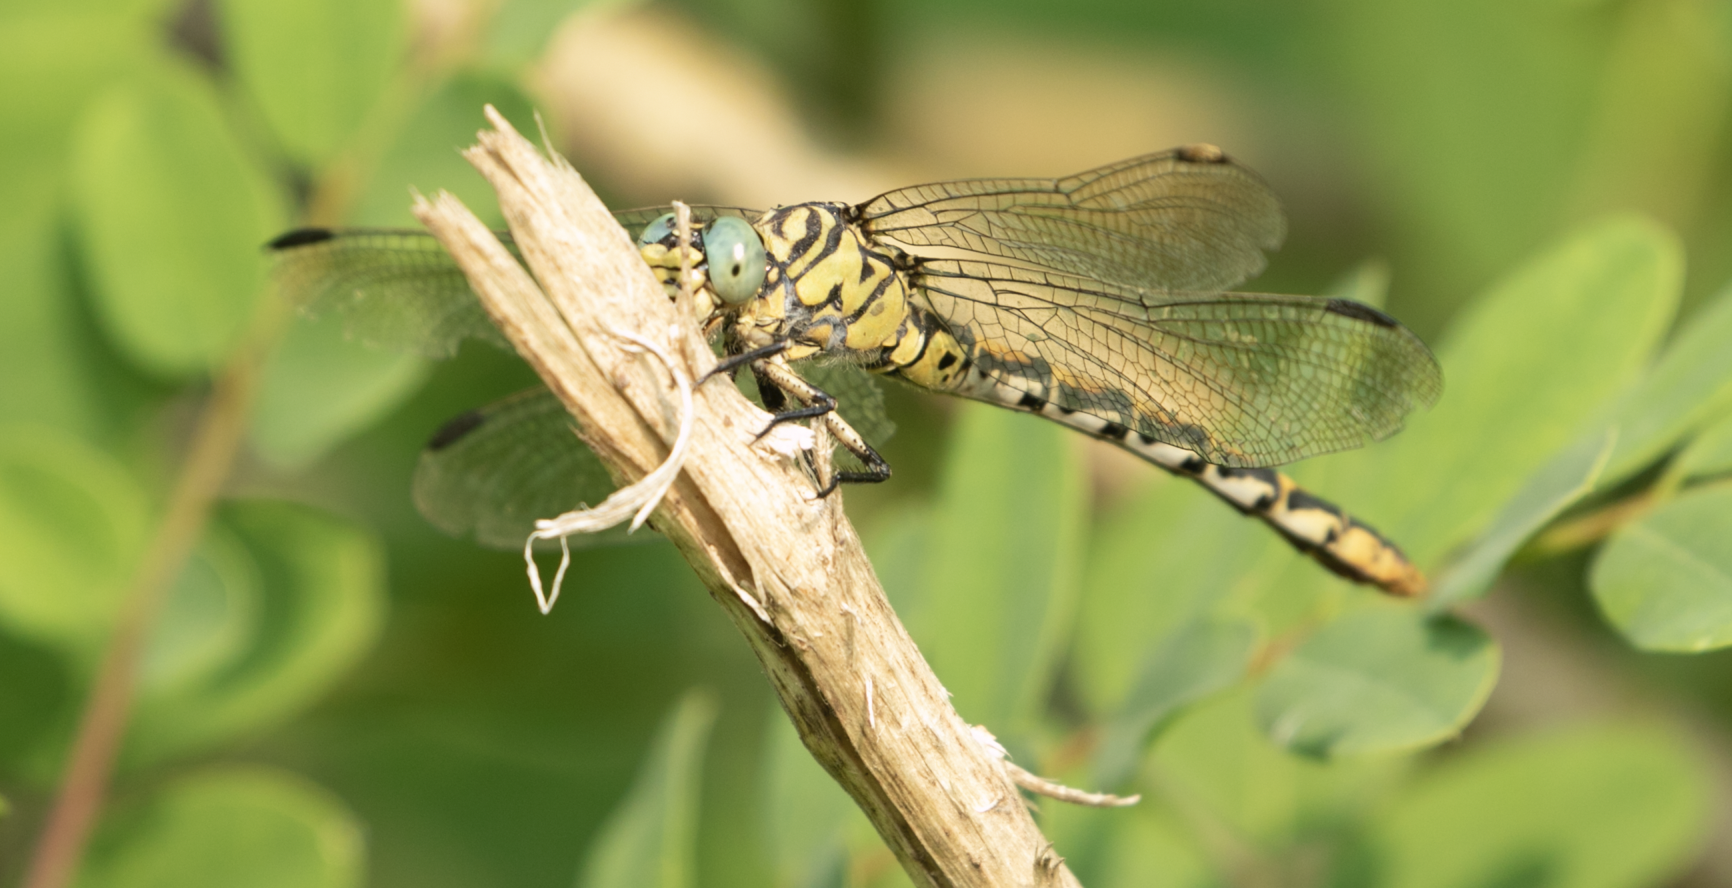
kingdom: Animalia
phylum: Arthropoda
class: Insecta
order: Odonata
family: Gomphidae
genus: Onychogomphus
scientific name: Onychogomphus forcipatus
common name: Small pincertail
